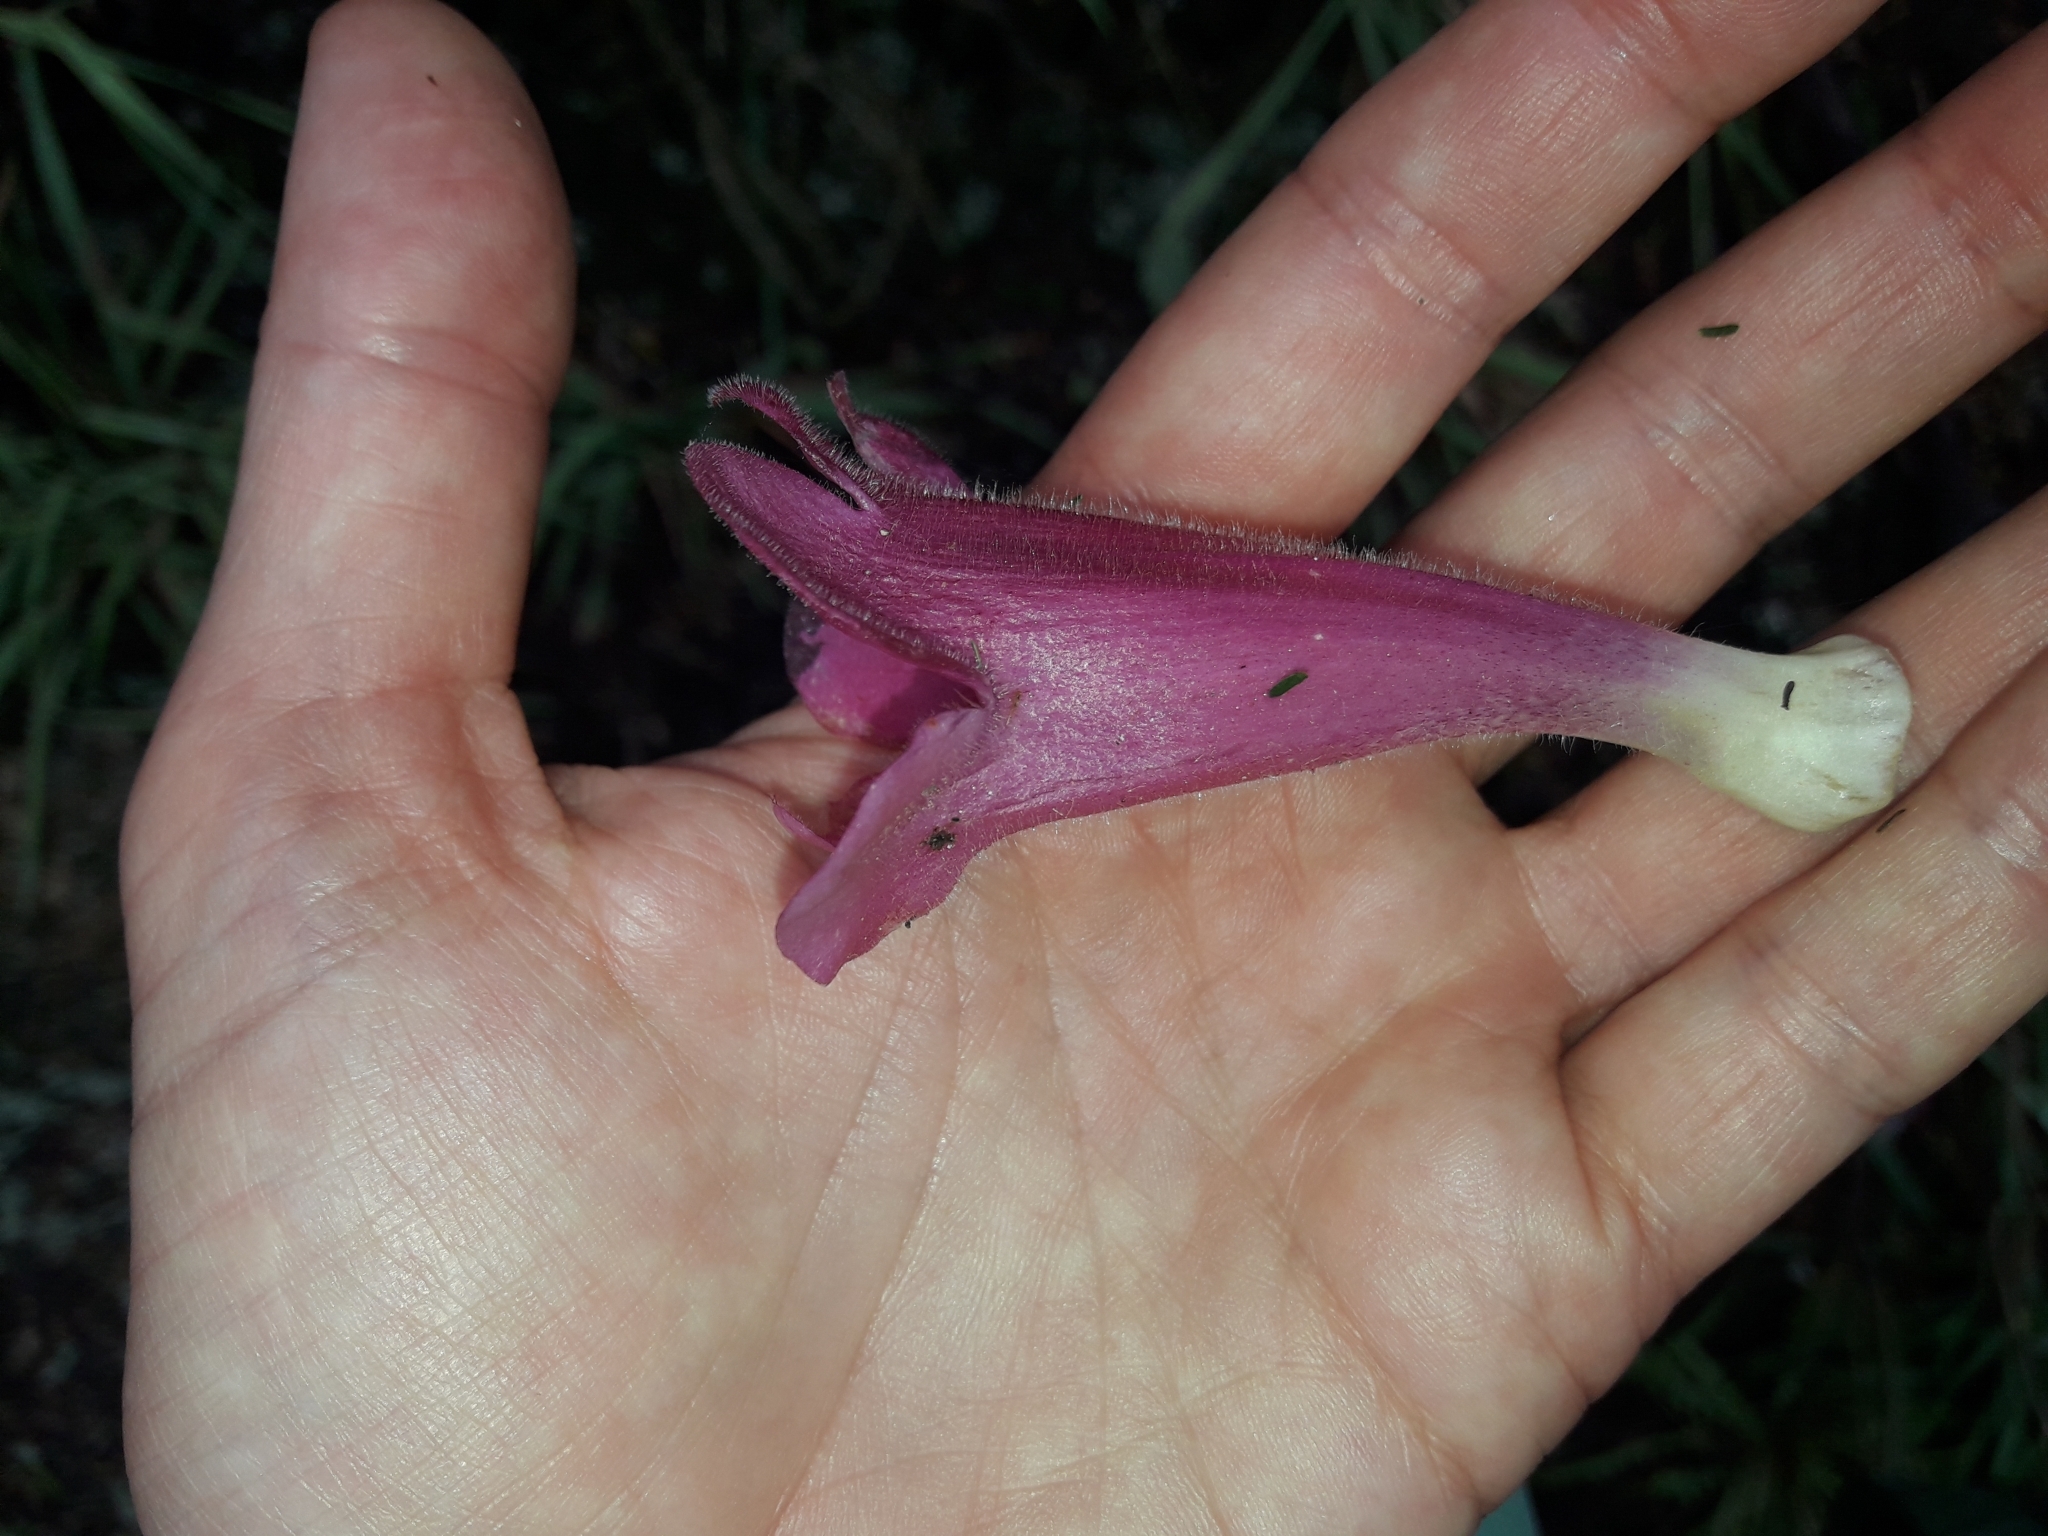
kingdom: Plantae
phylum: Tracheophyta
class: Magnoliopsida
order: Lamiales
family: Plantaginaceae
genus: Lophospermum
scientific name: Lophospermum erubescens
